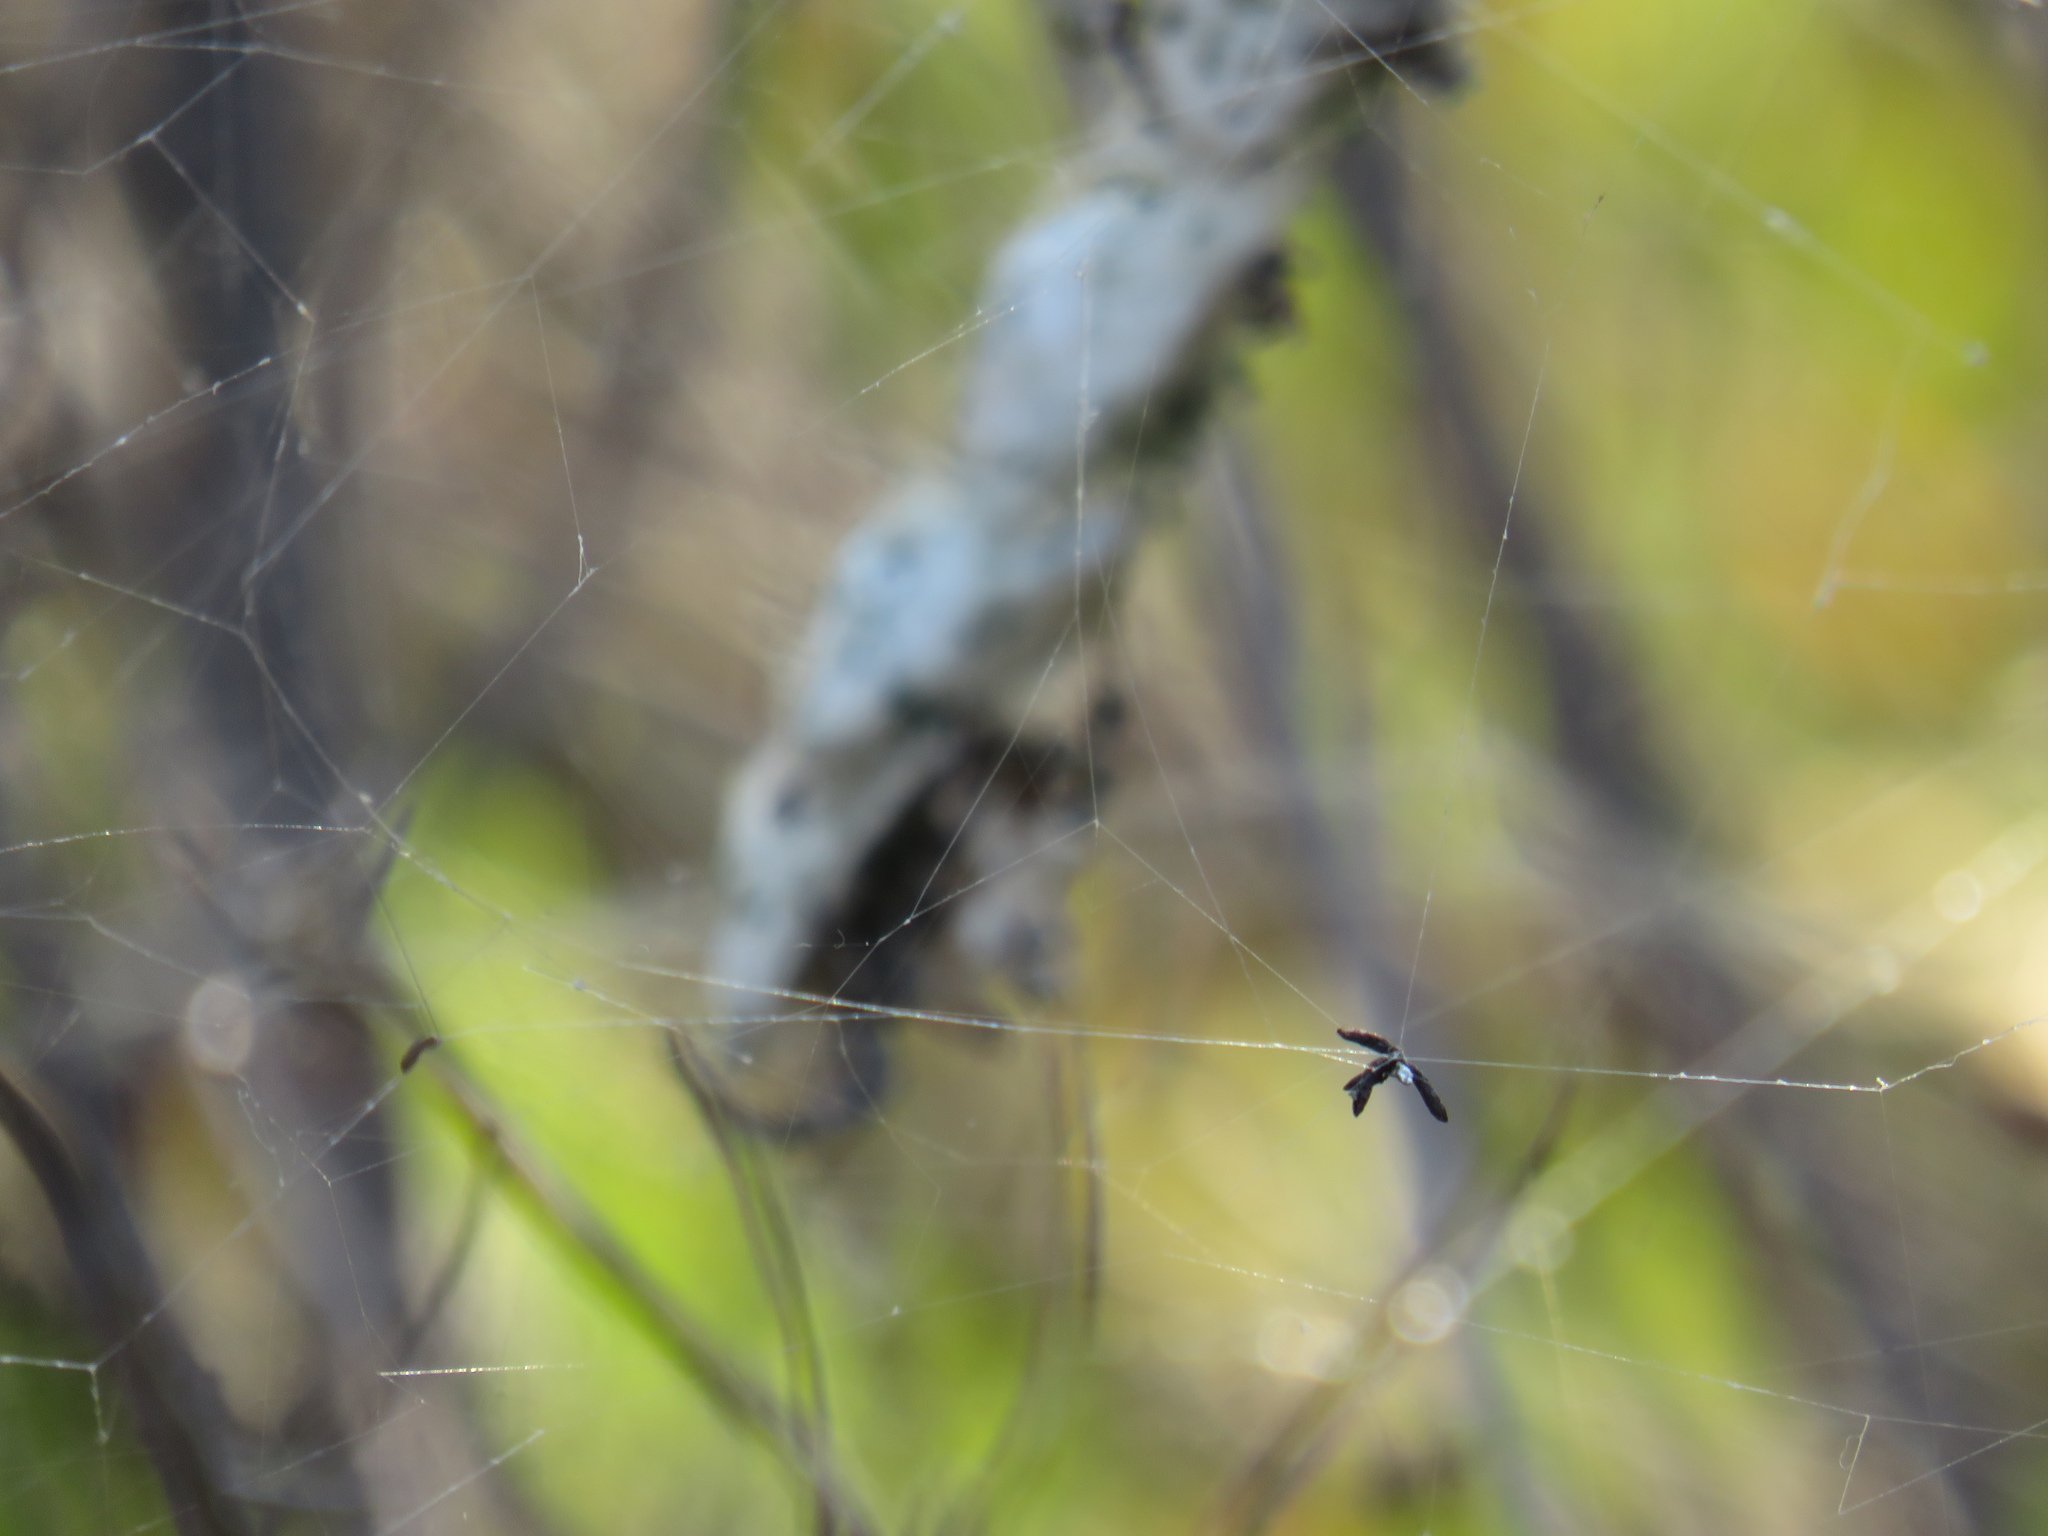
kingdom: Animalia
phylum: Arthropoda
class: Arachnida
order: Araneae
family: Araneidae
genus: Cyrtophora
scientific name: Cyrtophora citricola
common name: Orb weavers
